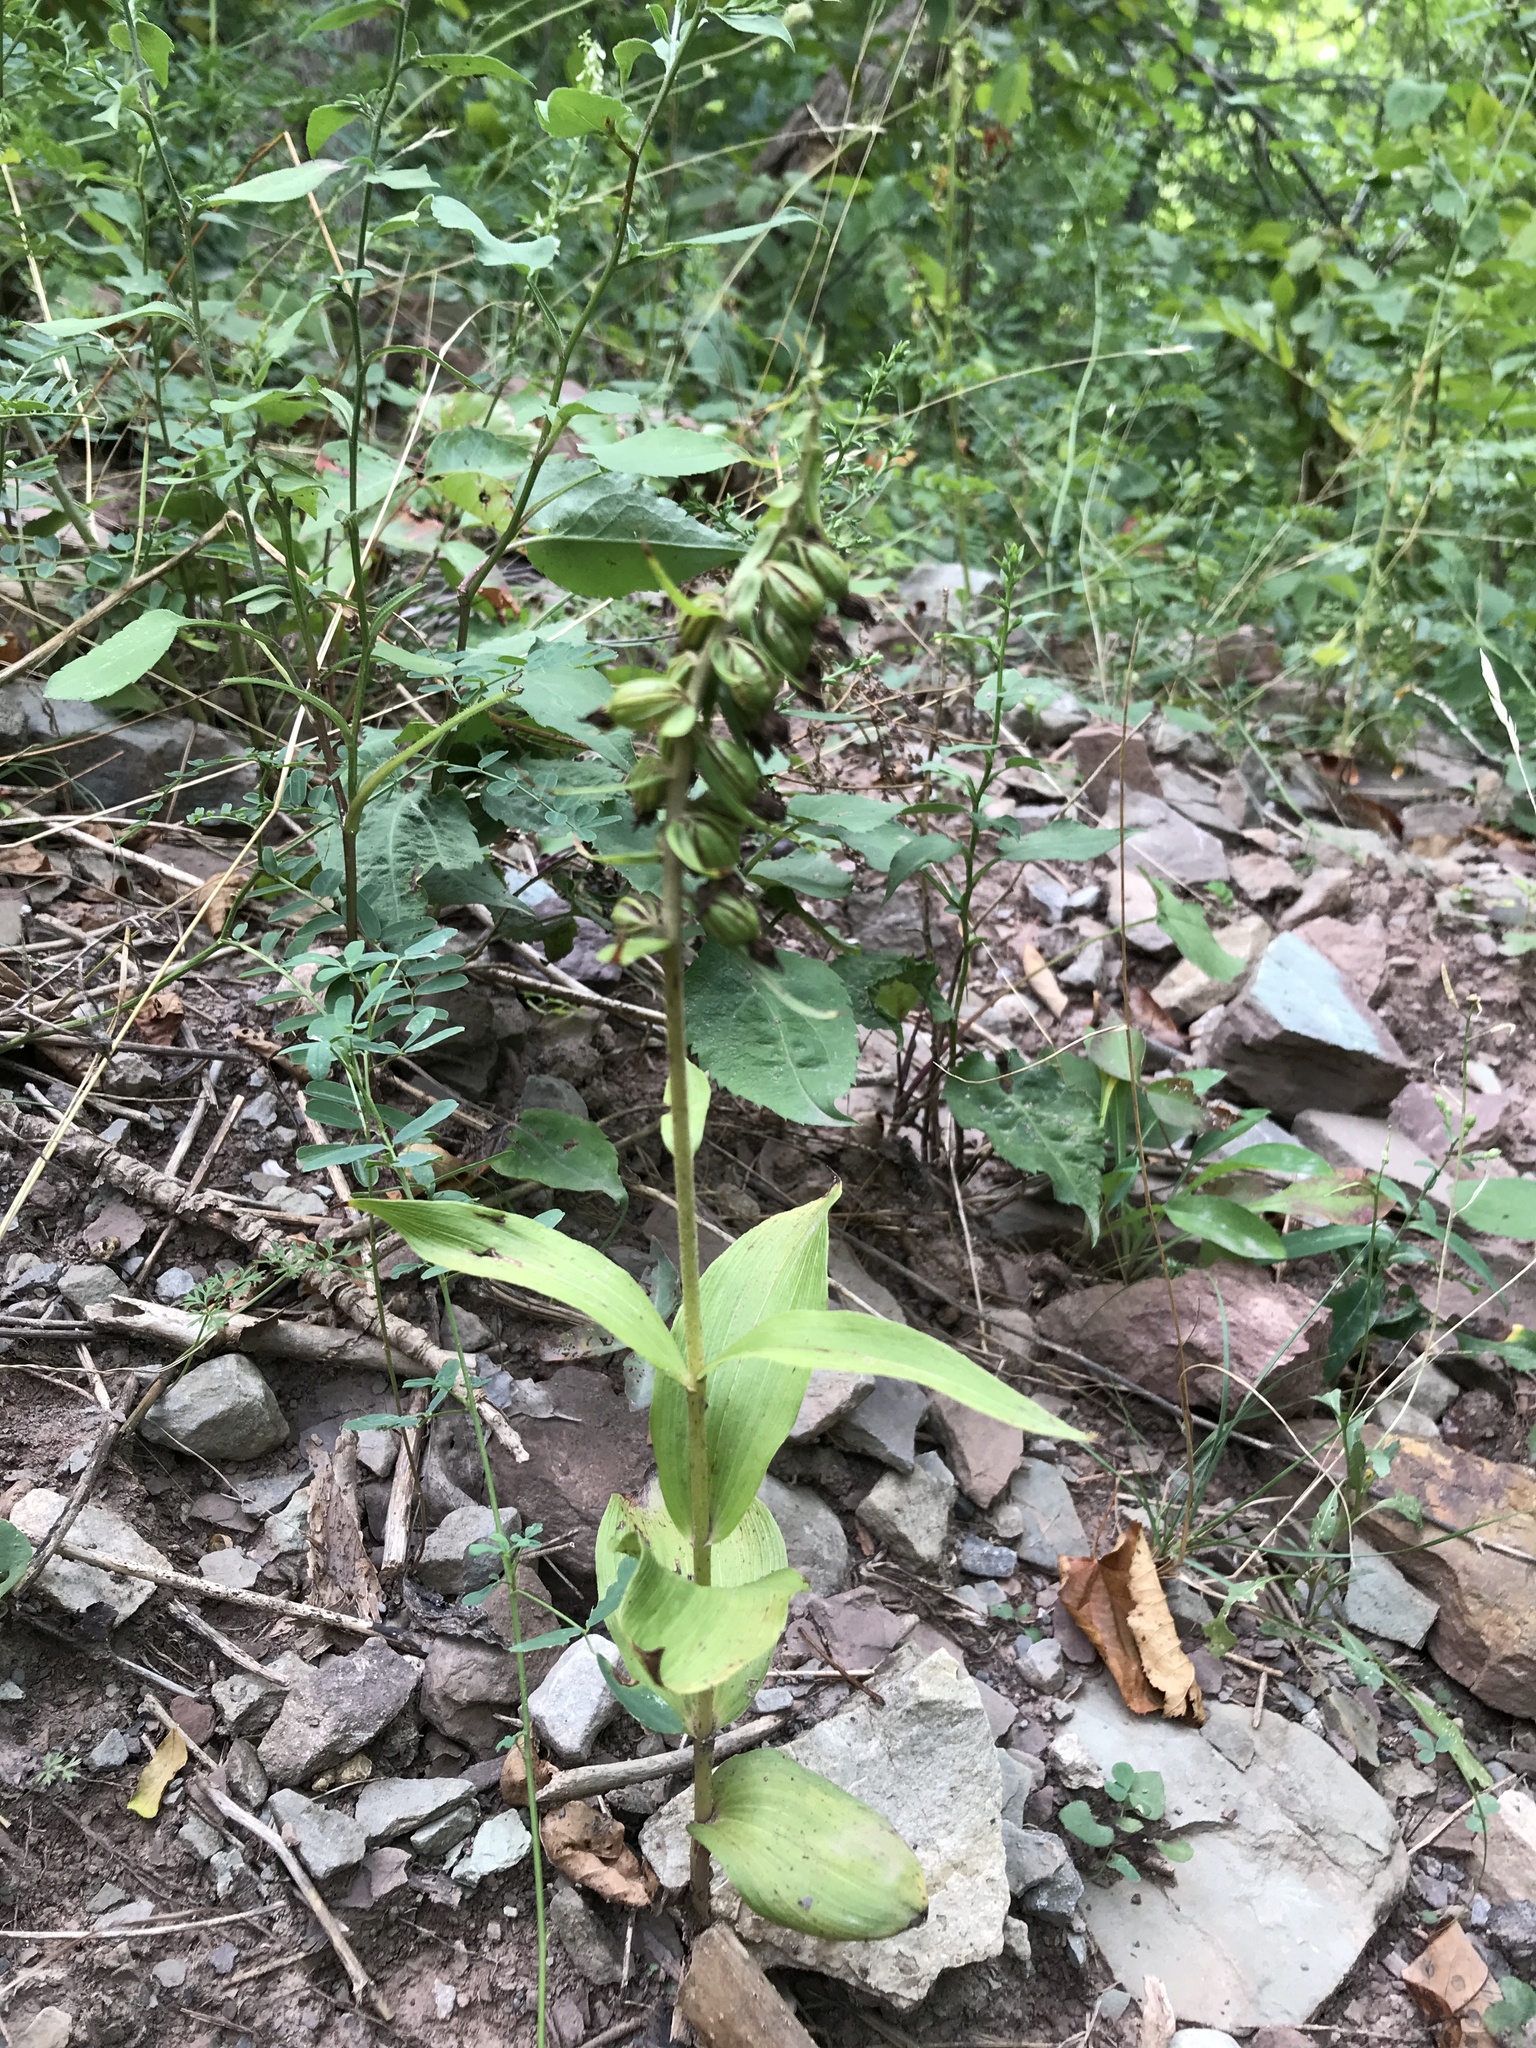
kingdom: Plantae
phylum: Tracheophyta
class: Liliopsida
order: Asparagales
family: Orchidaceae
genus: Epipactis
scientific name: Epipactis helleborine
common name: Broad-leaved helleborine
